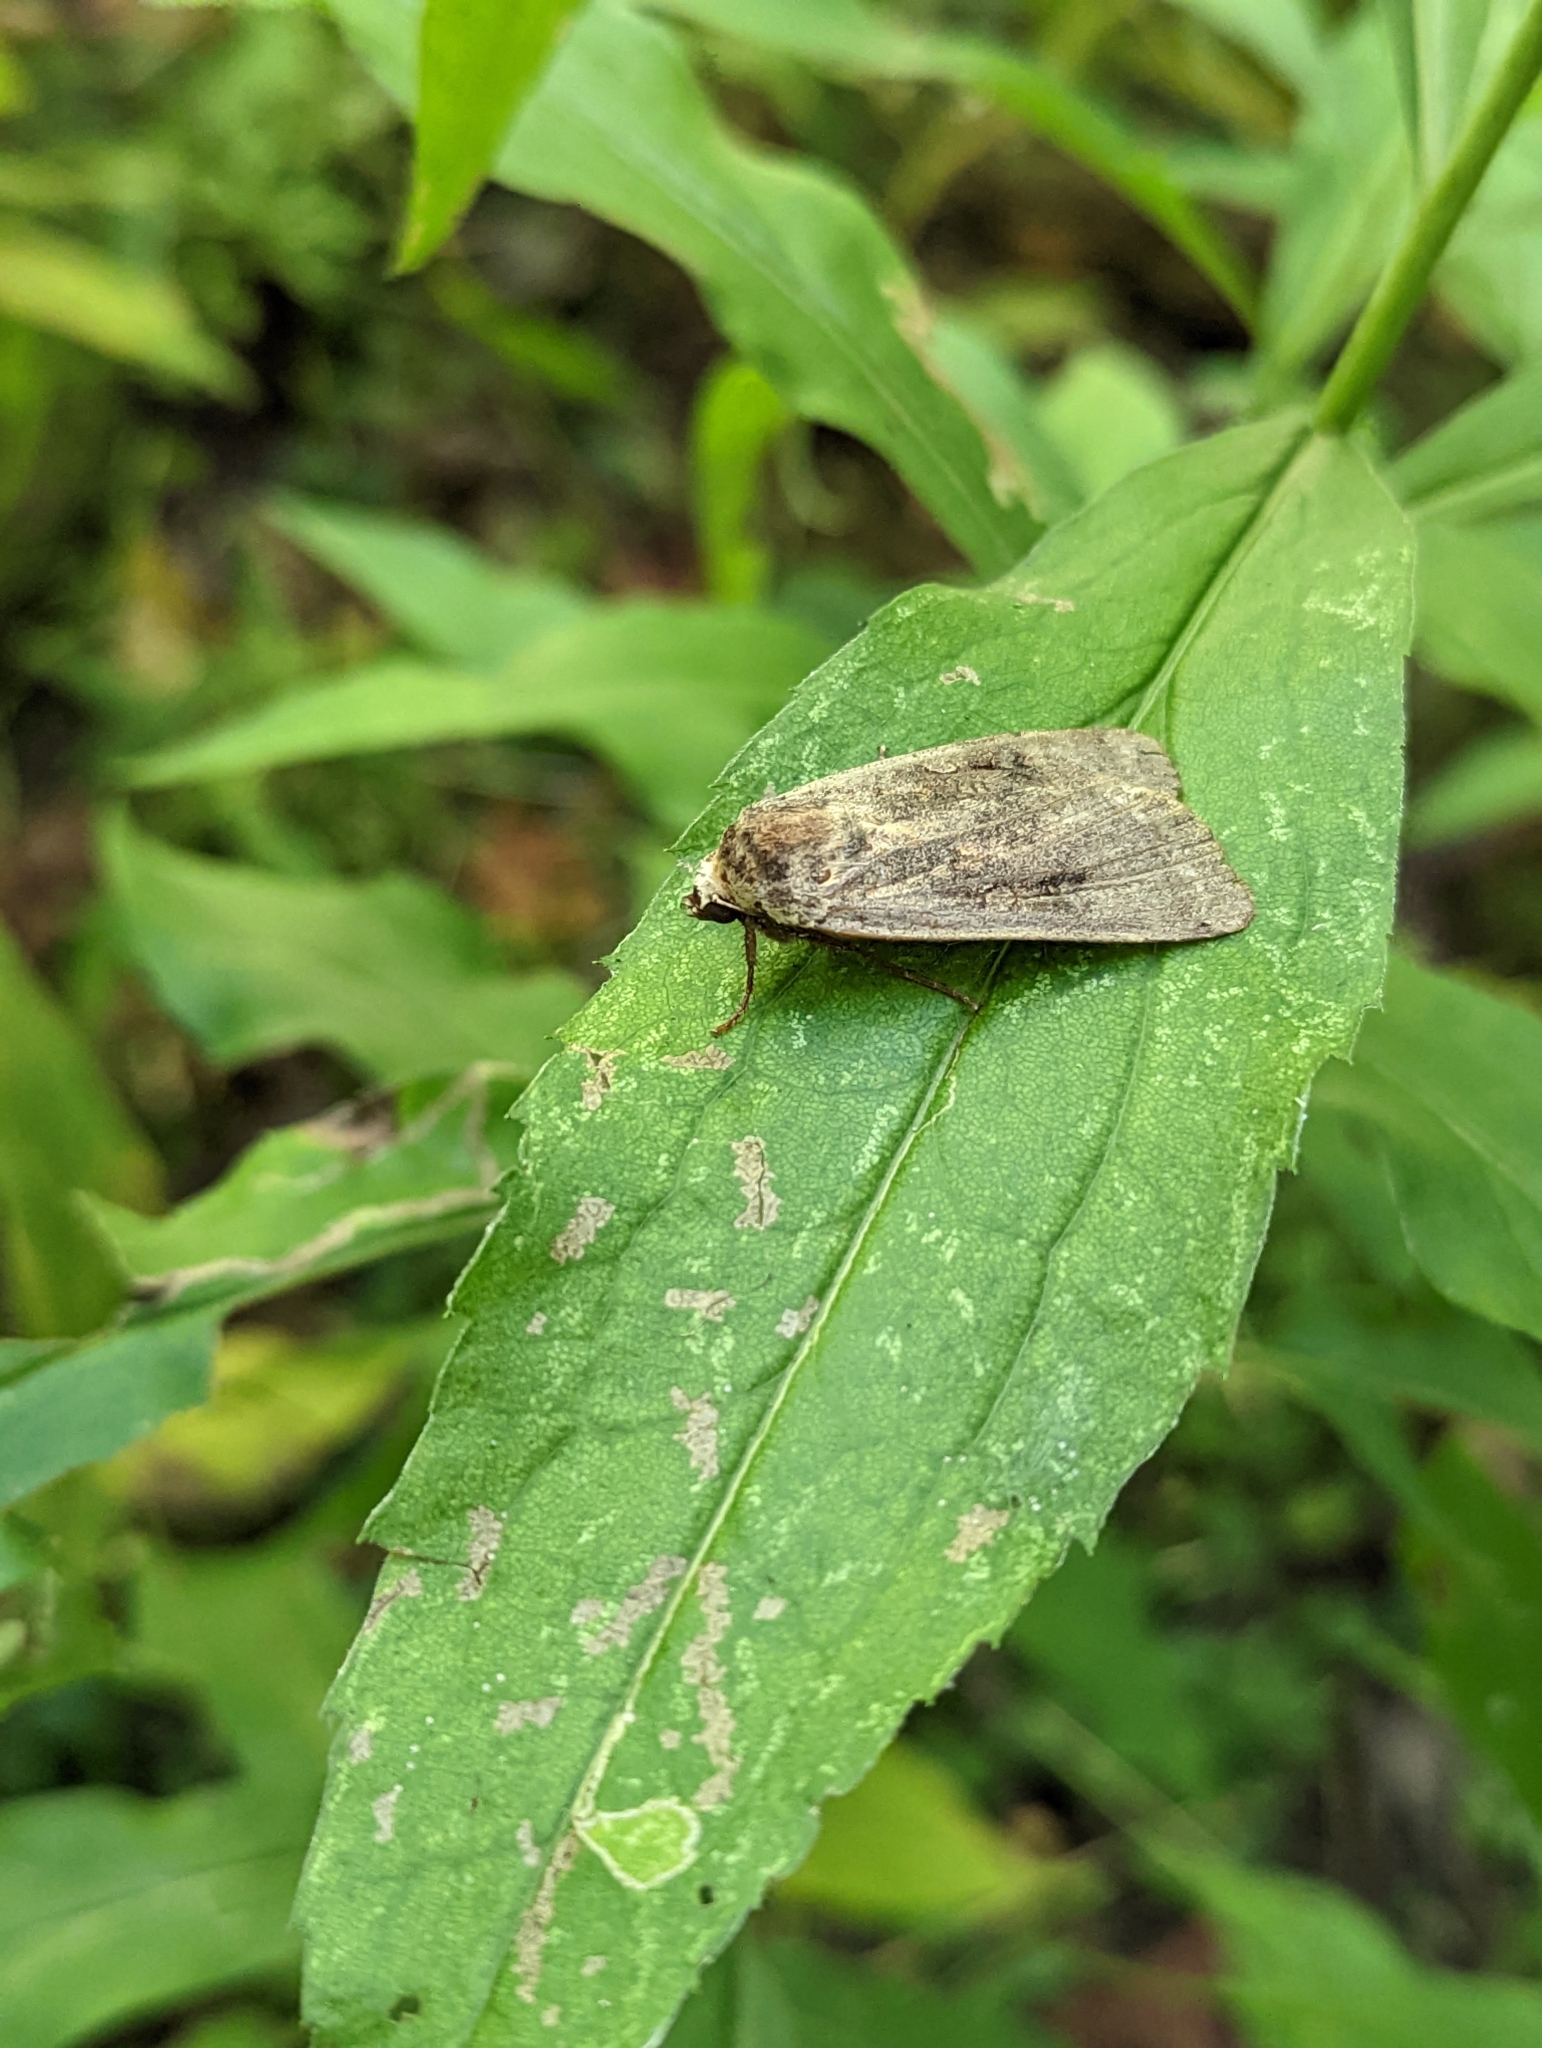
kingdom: Animalia
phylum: Arthropoda
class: Insecta
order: Lepidoptera
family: Noctuidae
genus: Noctua
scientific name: Noctua pronuba
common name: Large yellow underwing
